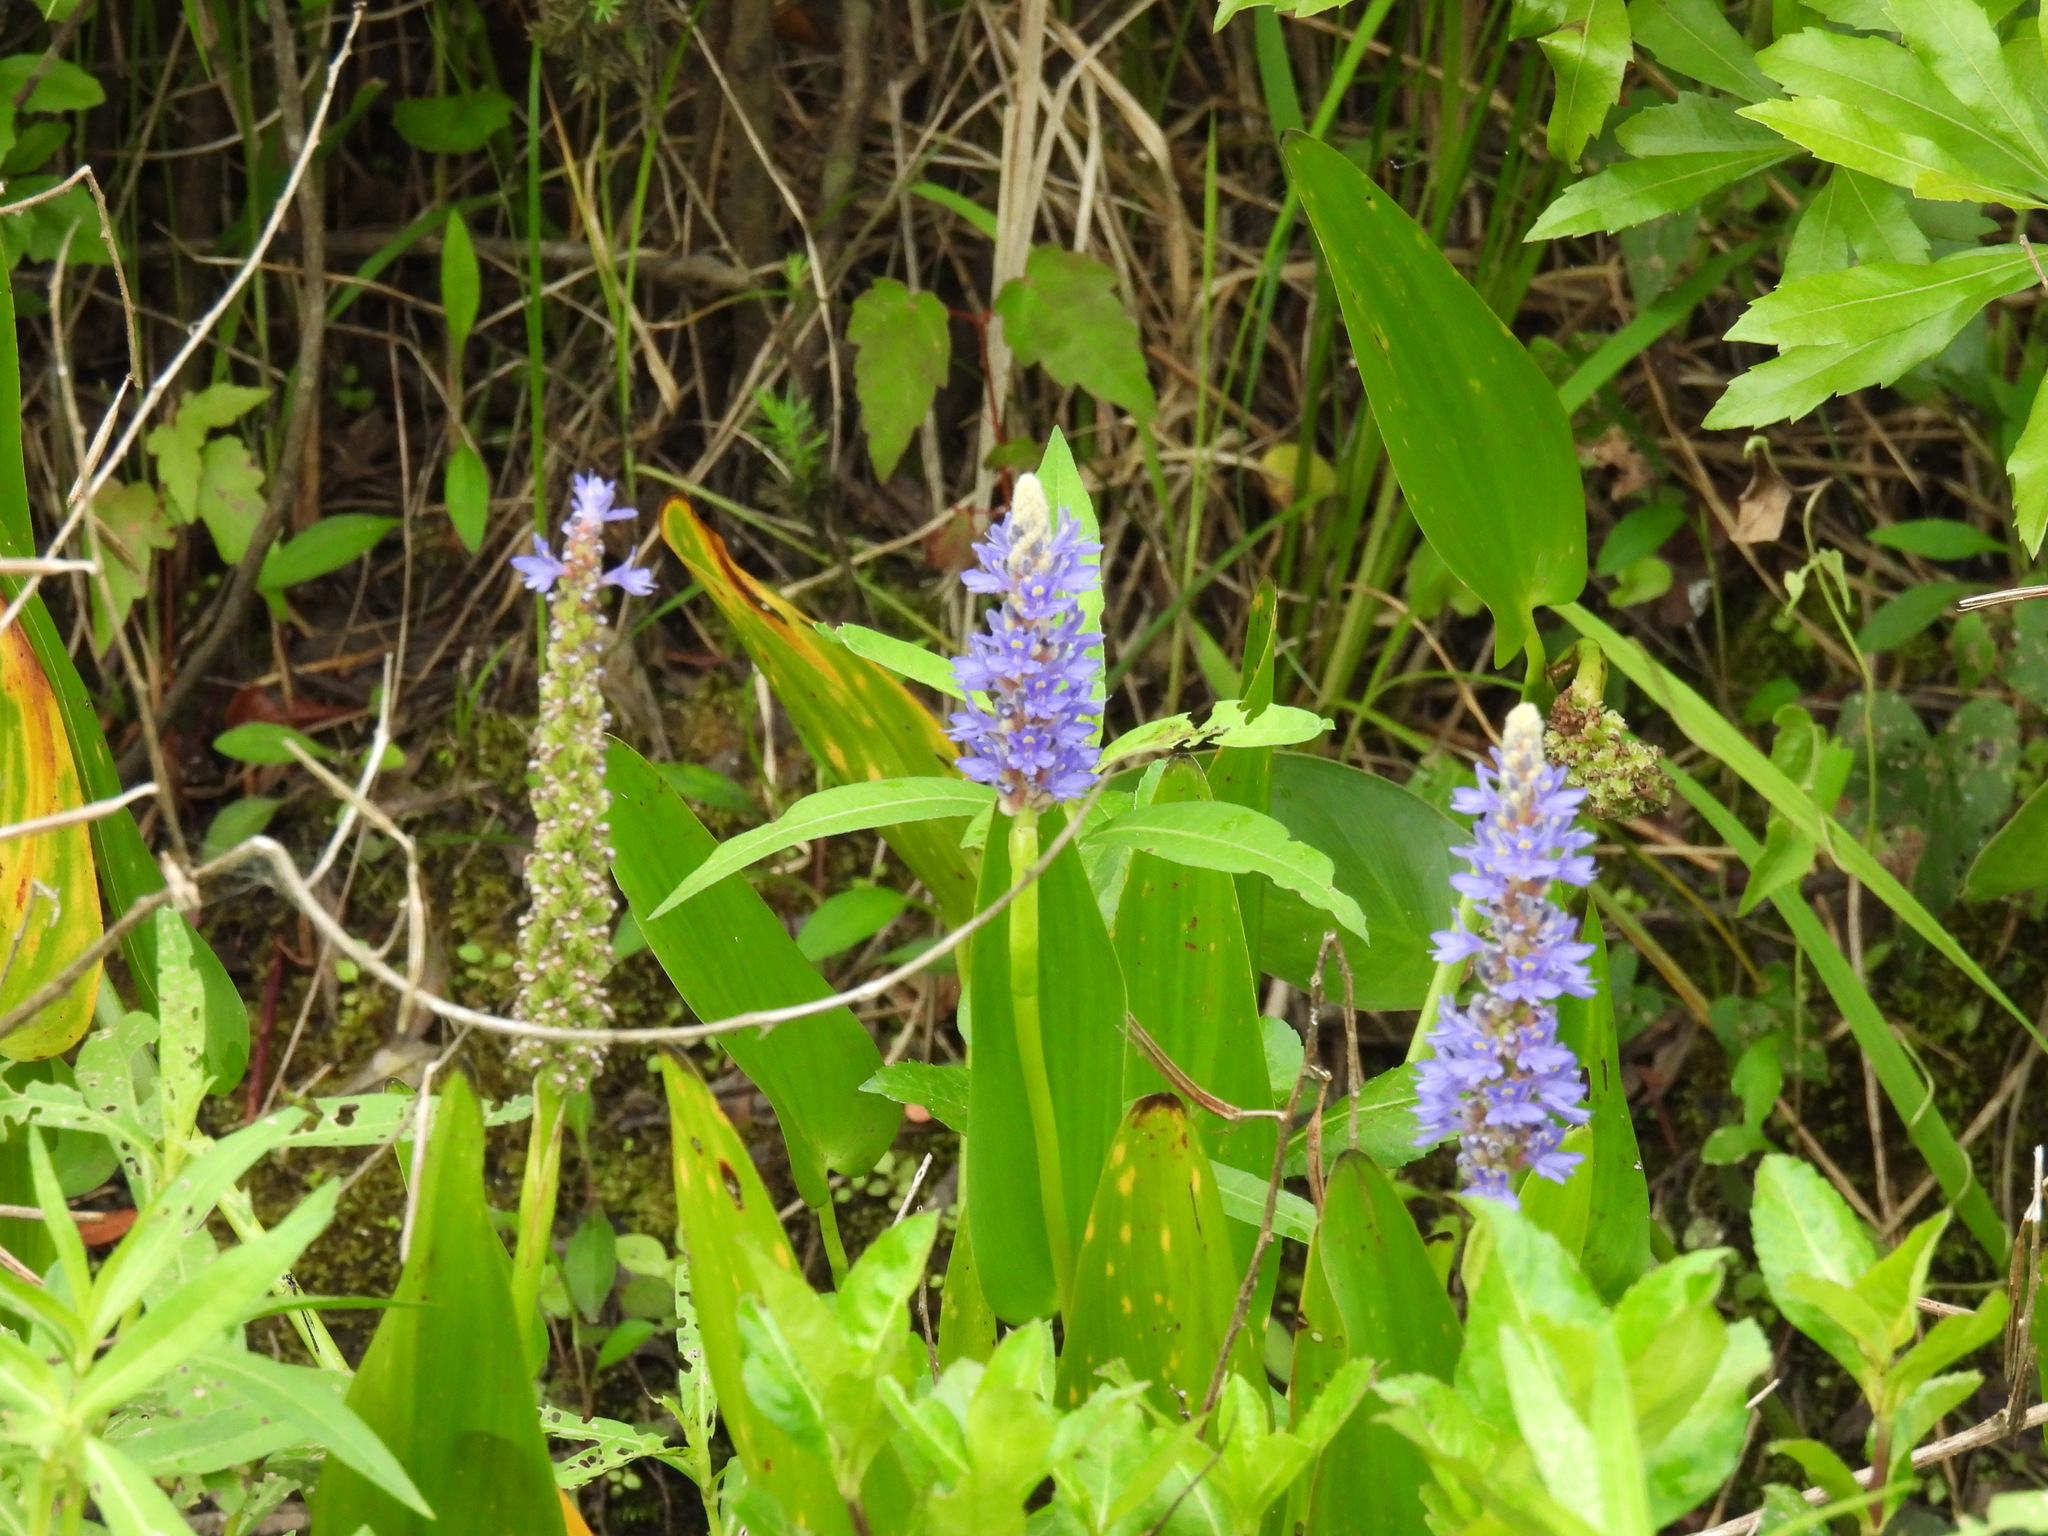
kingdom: Plantae
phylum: Tracheophyta
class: Liliopsida
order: Commelinales
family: Pontederiaceae
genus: Pontederia
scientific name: Pontederia cordata
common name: Pickerelweed
